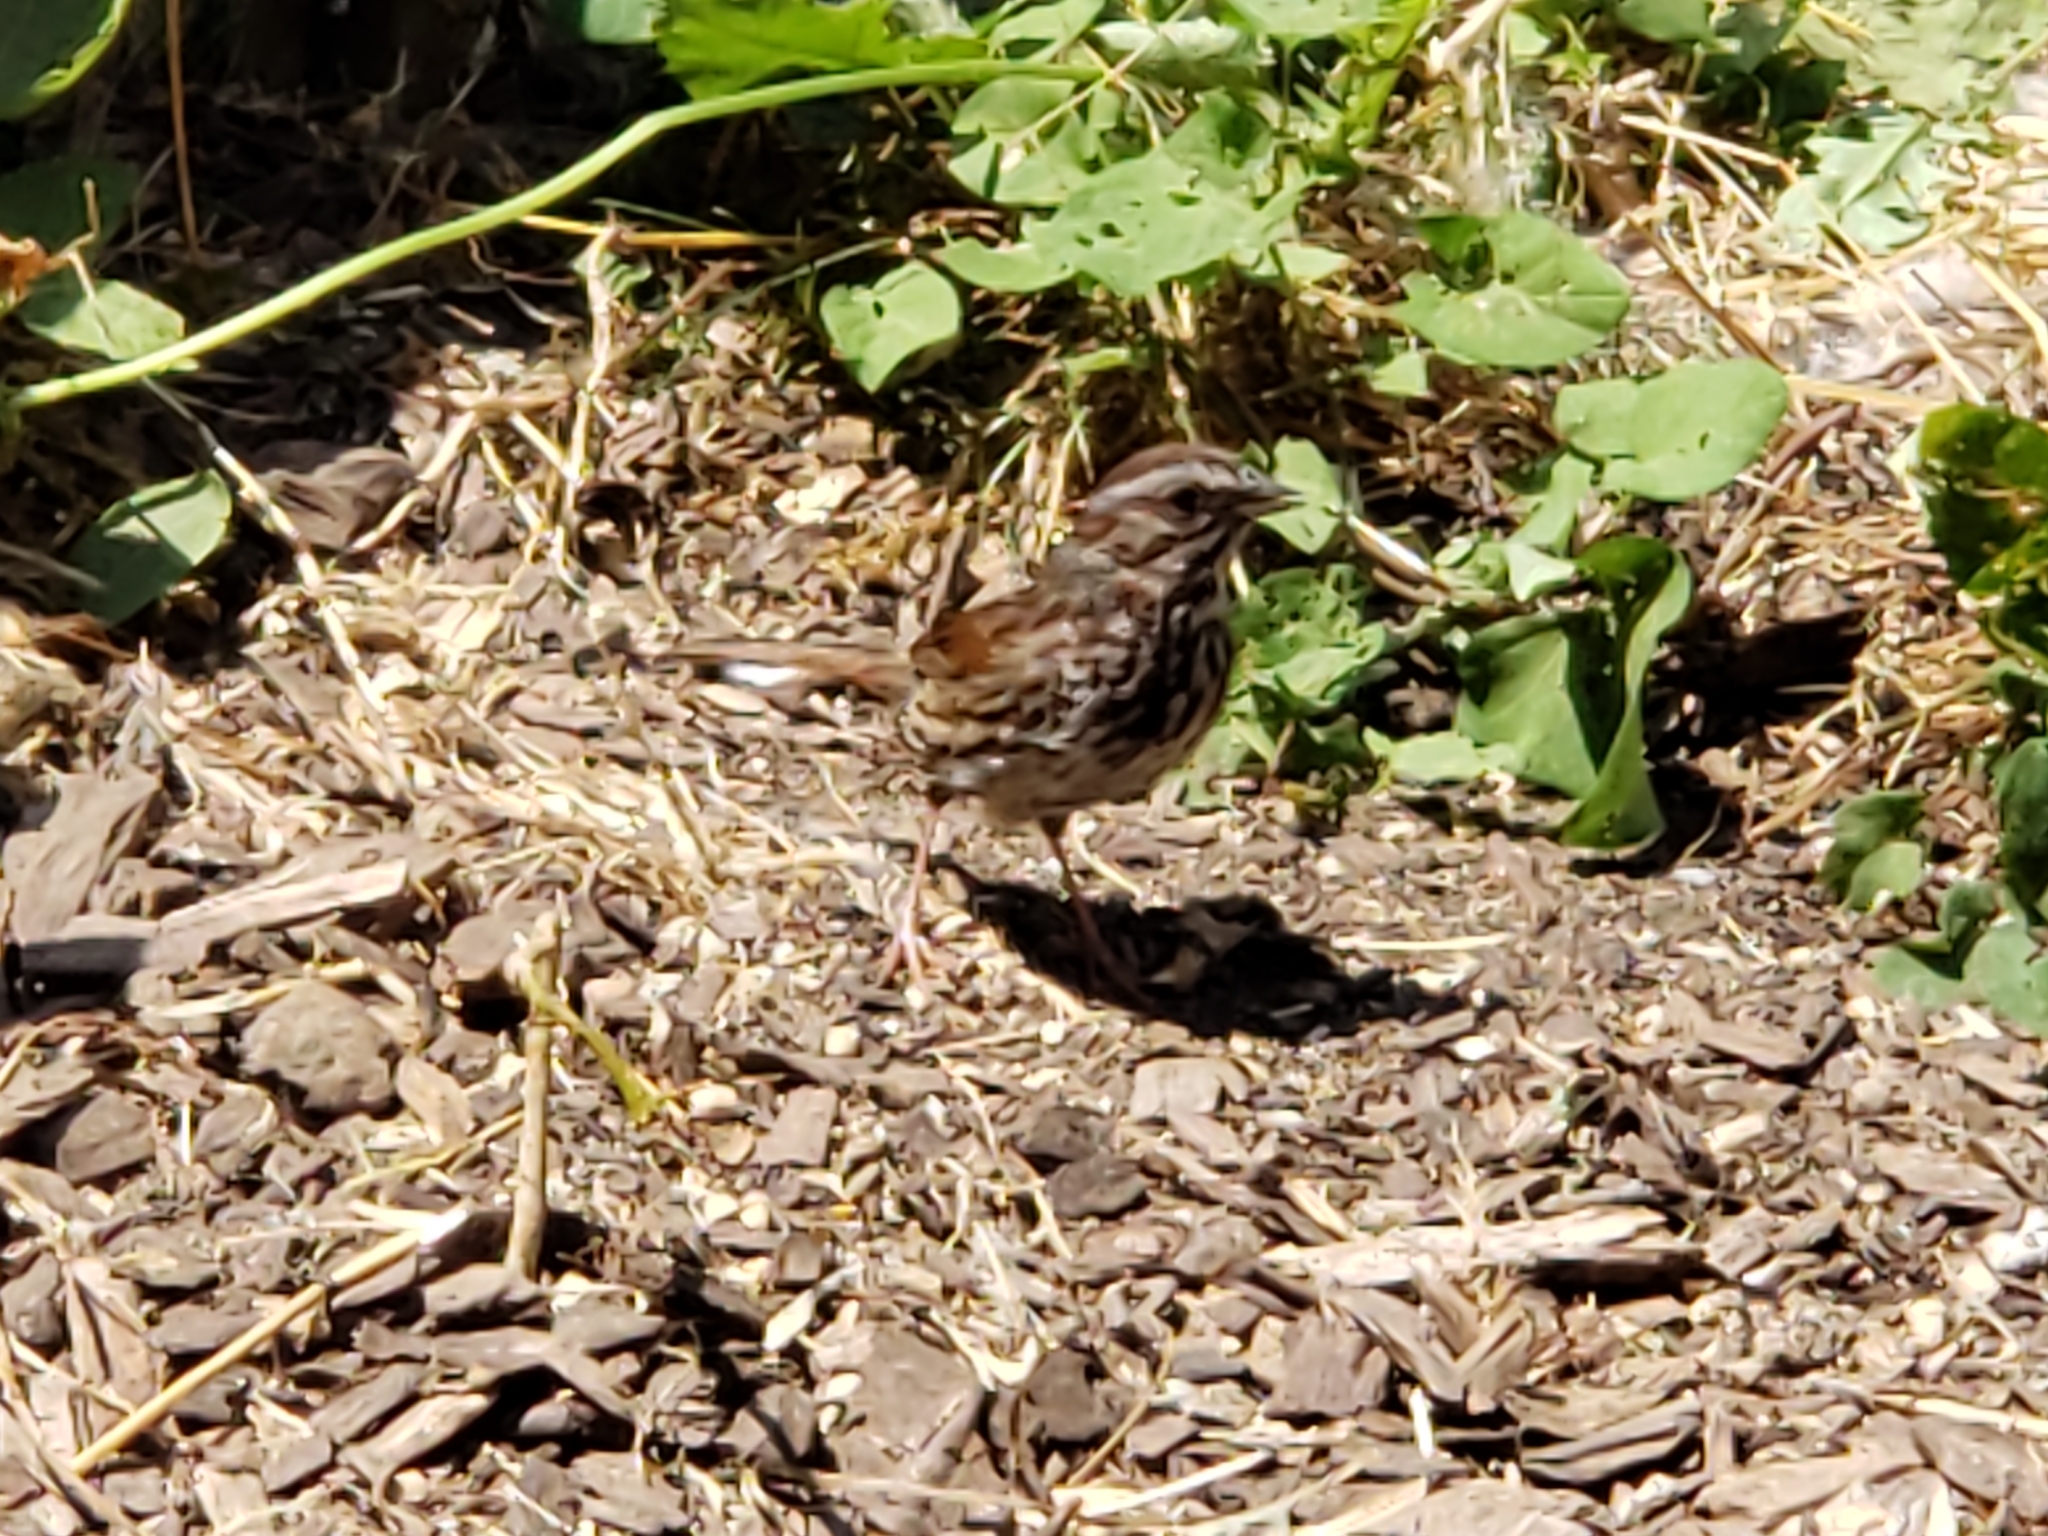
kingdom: Animalia
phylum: Chordata
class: Aves
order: Passeriformes
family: Passerellidae
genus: Melospiza
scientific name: Melospiza melodia
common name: Song sparrow
